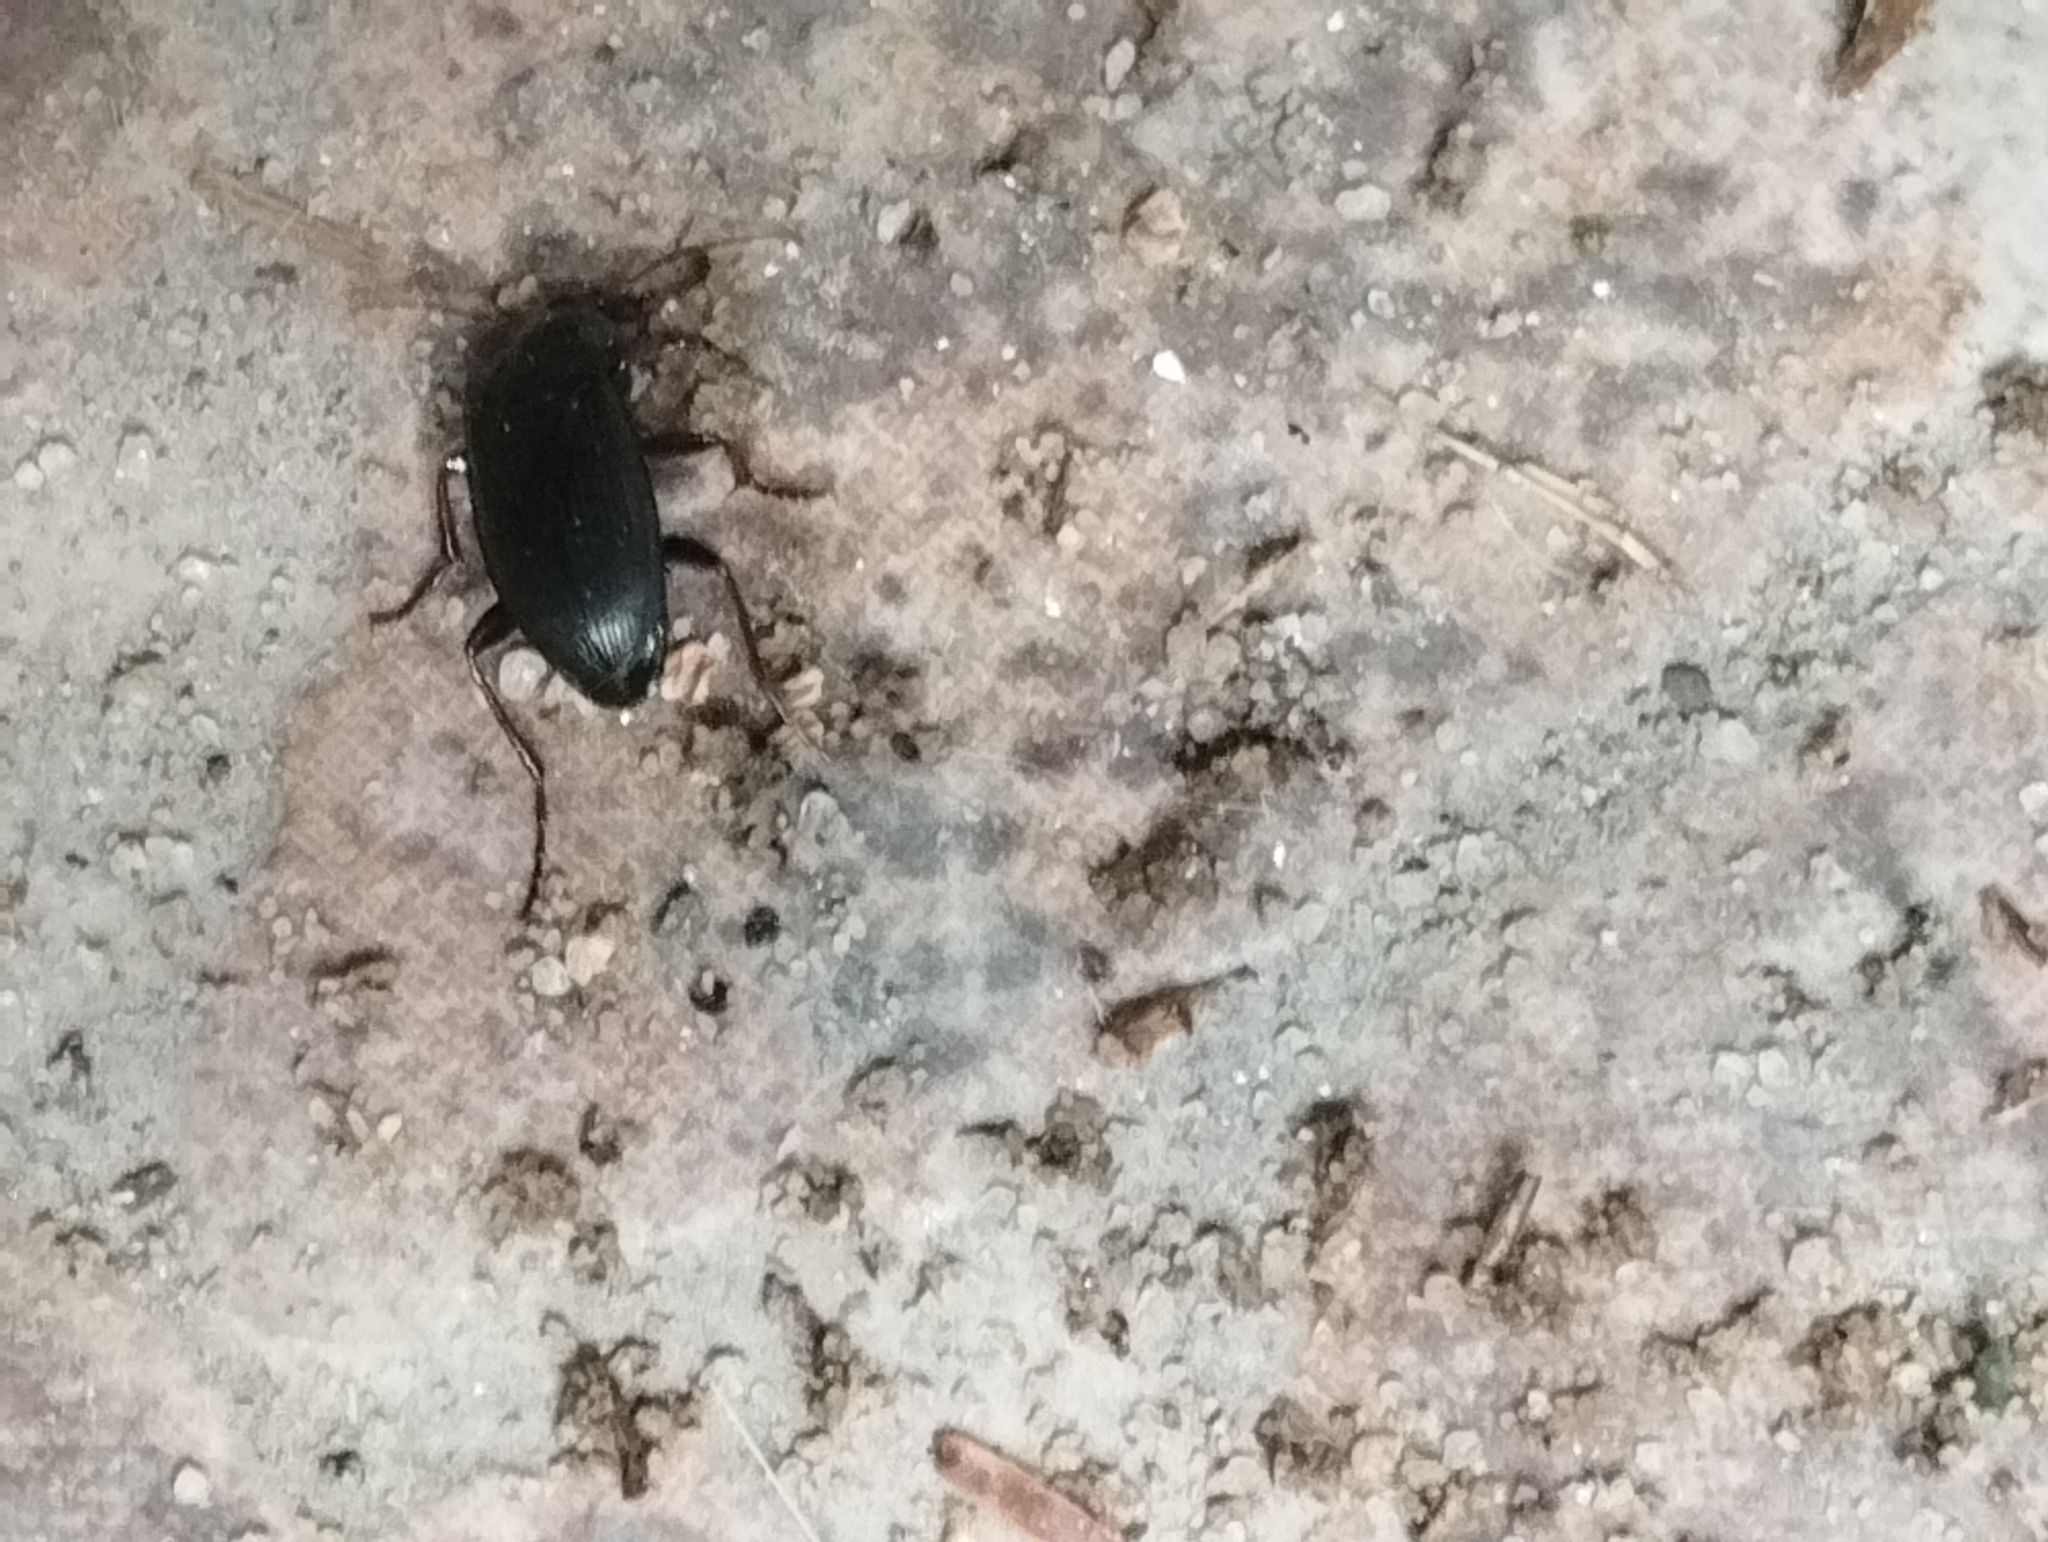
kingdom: Animalia
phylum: Arthropoda
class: Insecta
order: Coleoptera
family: Carabidae
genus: Calathus
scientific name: Calathus fuscipes
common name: Dark-footed harp ground beetle
